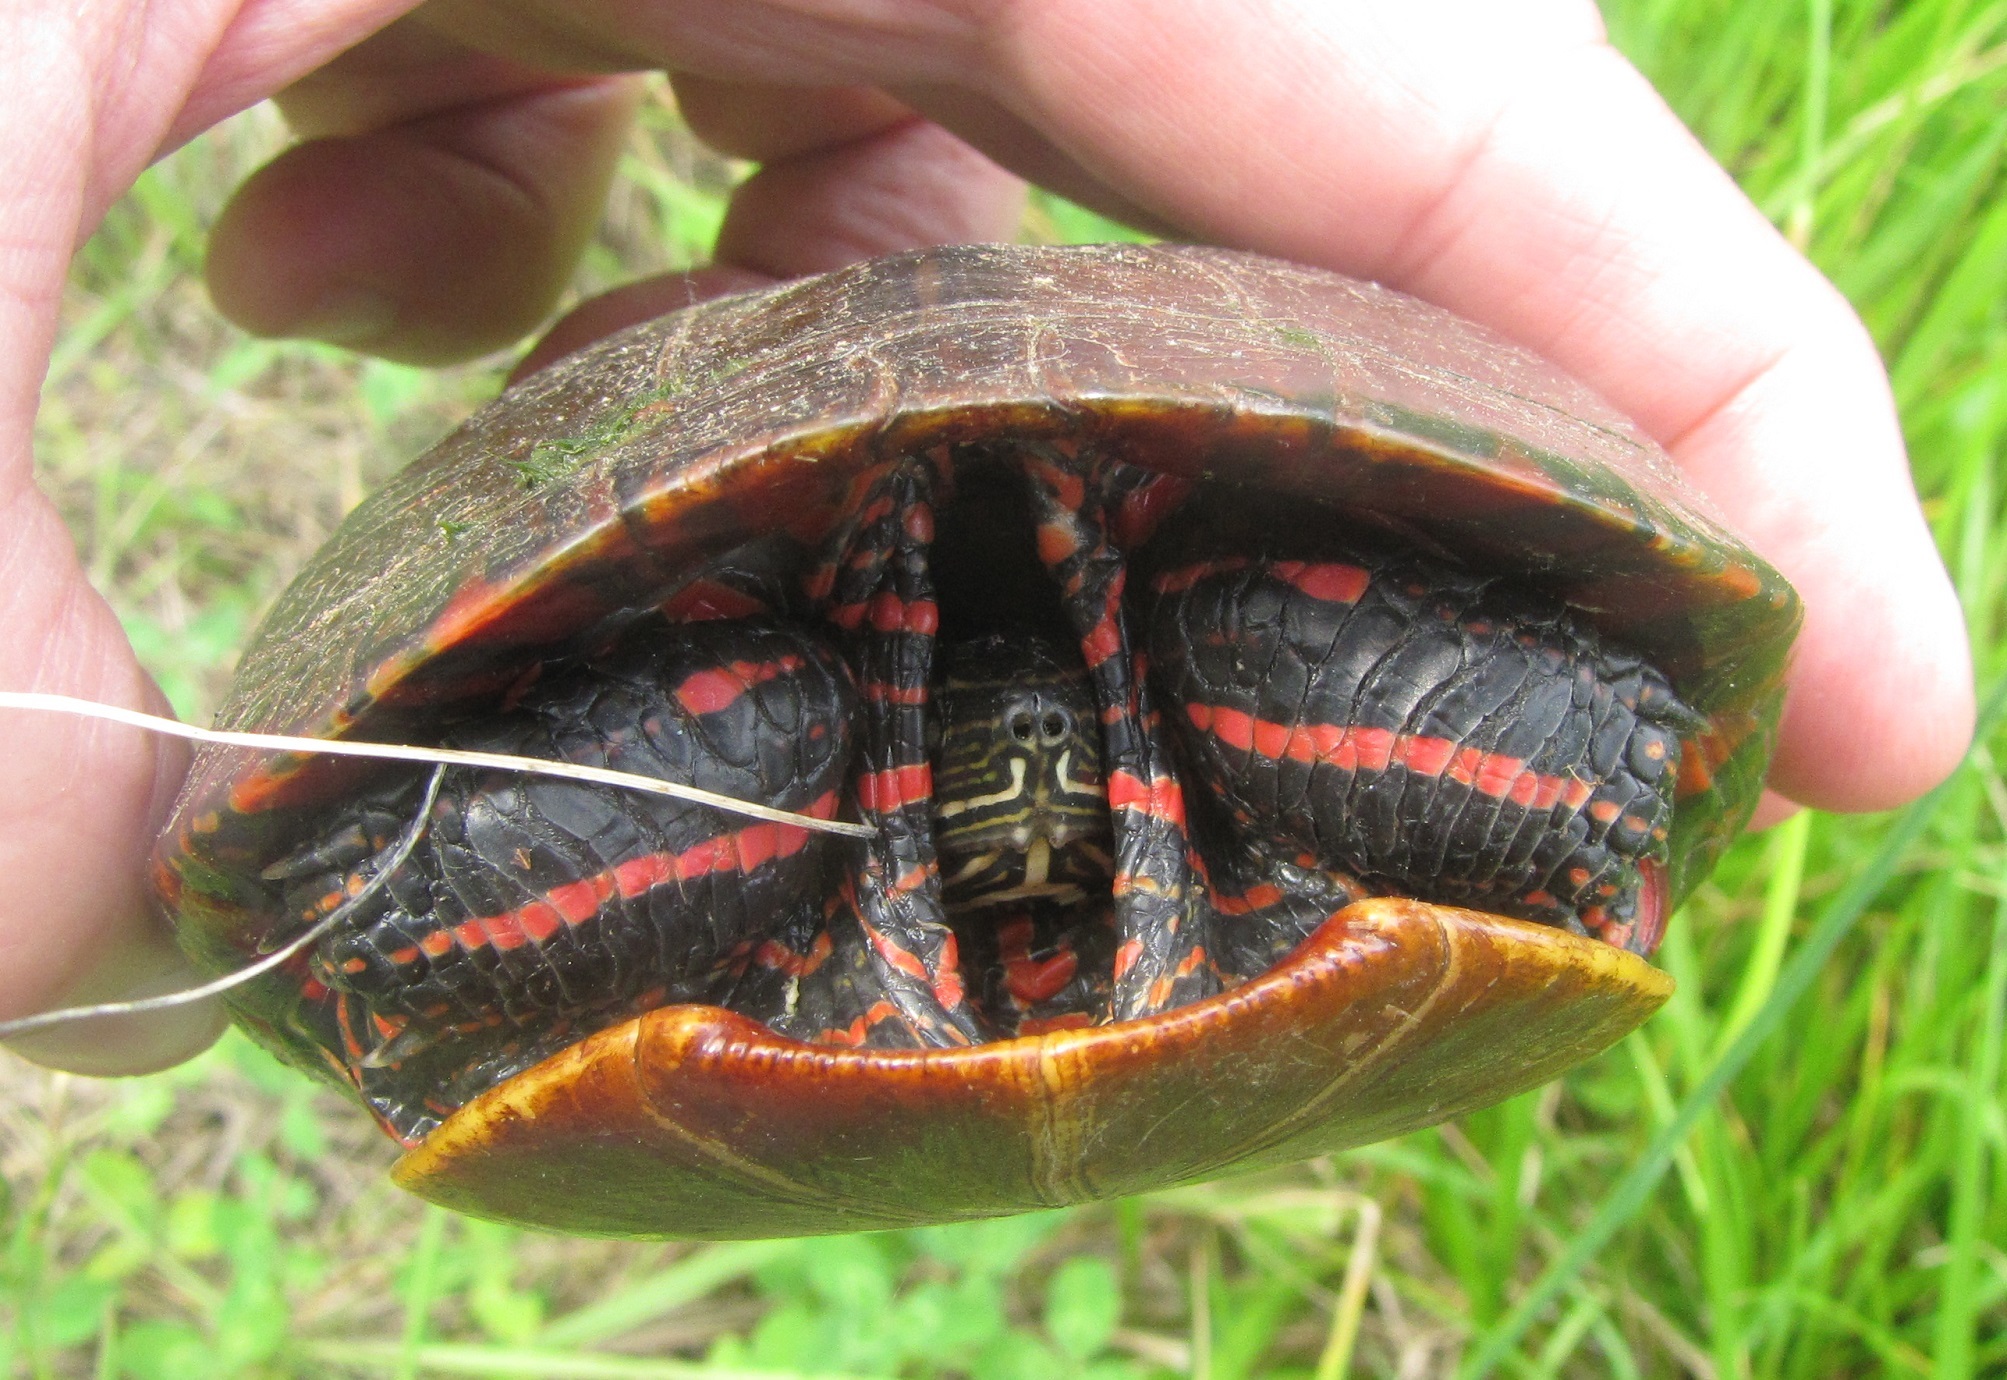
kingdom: Animalia
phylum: Chordata
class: Testudines
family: Emydidae
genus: Chrysemys
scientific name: Chrysemys picta
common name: Painted turtle
